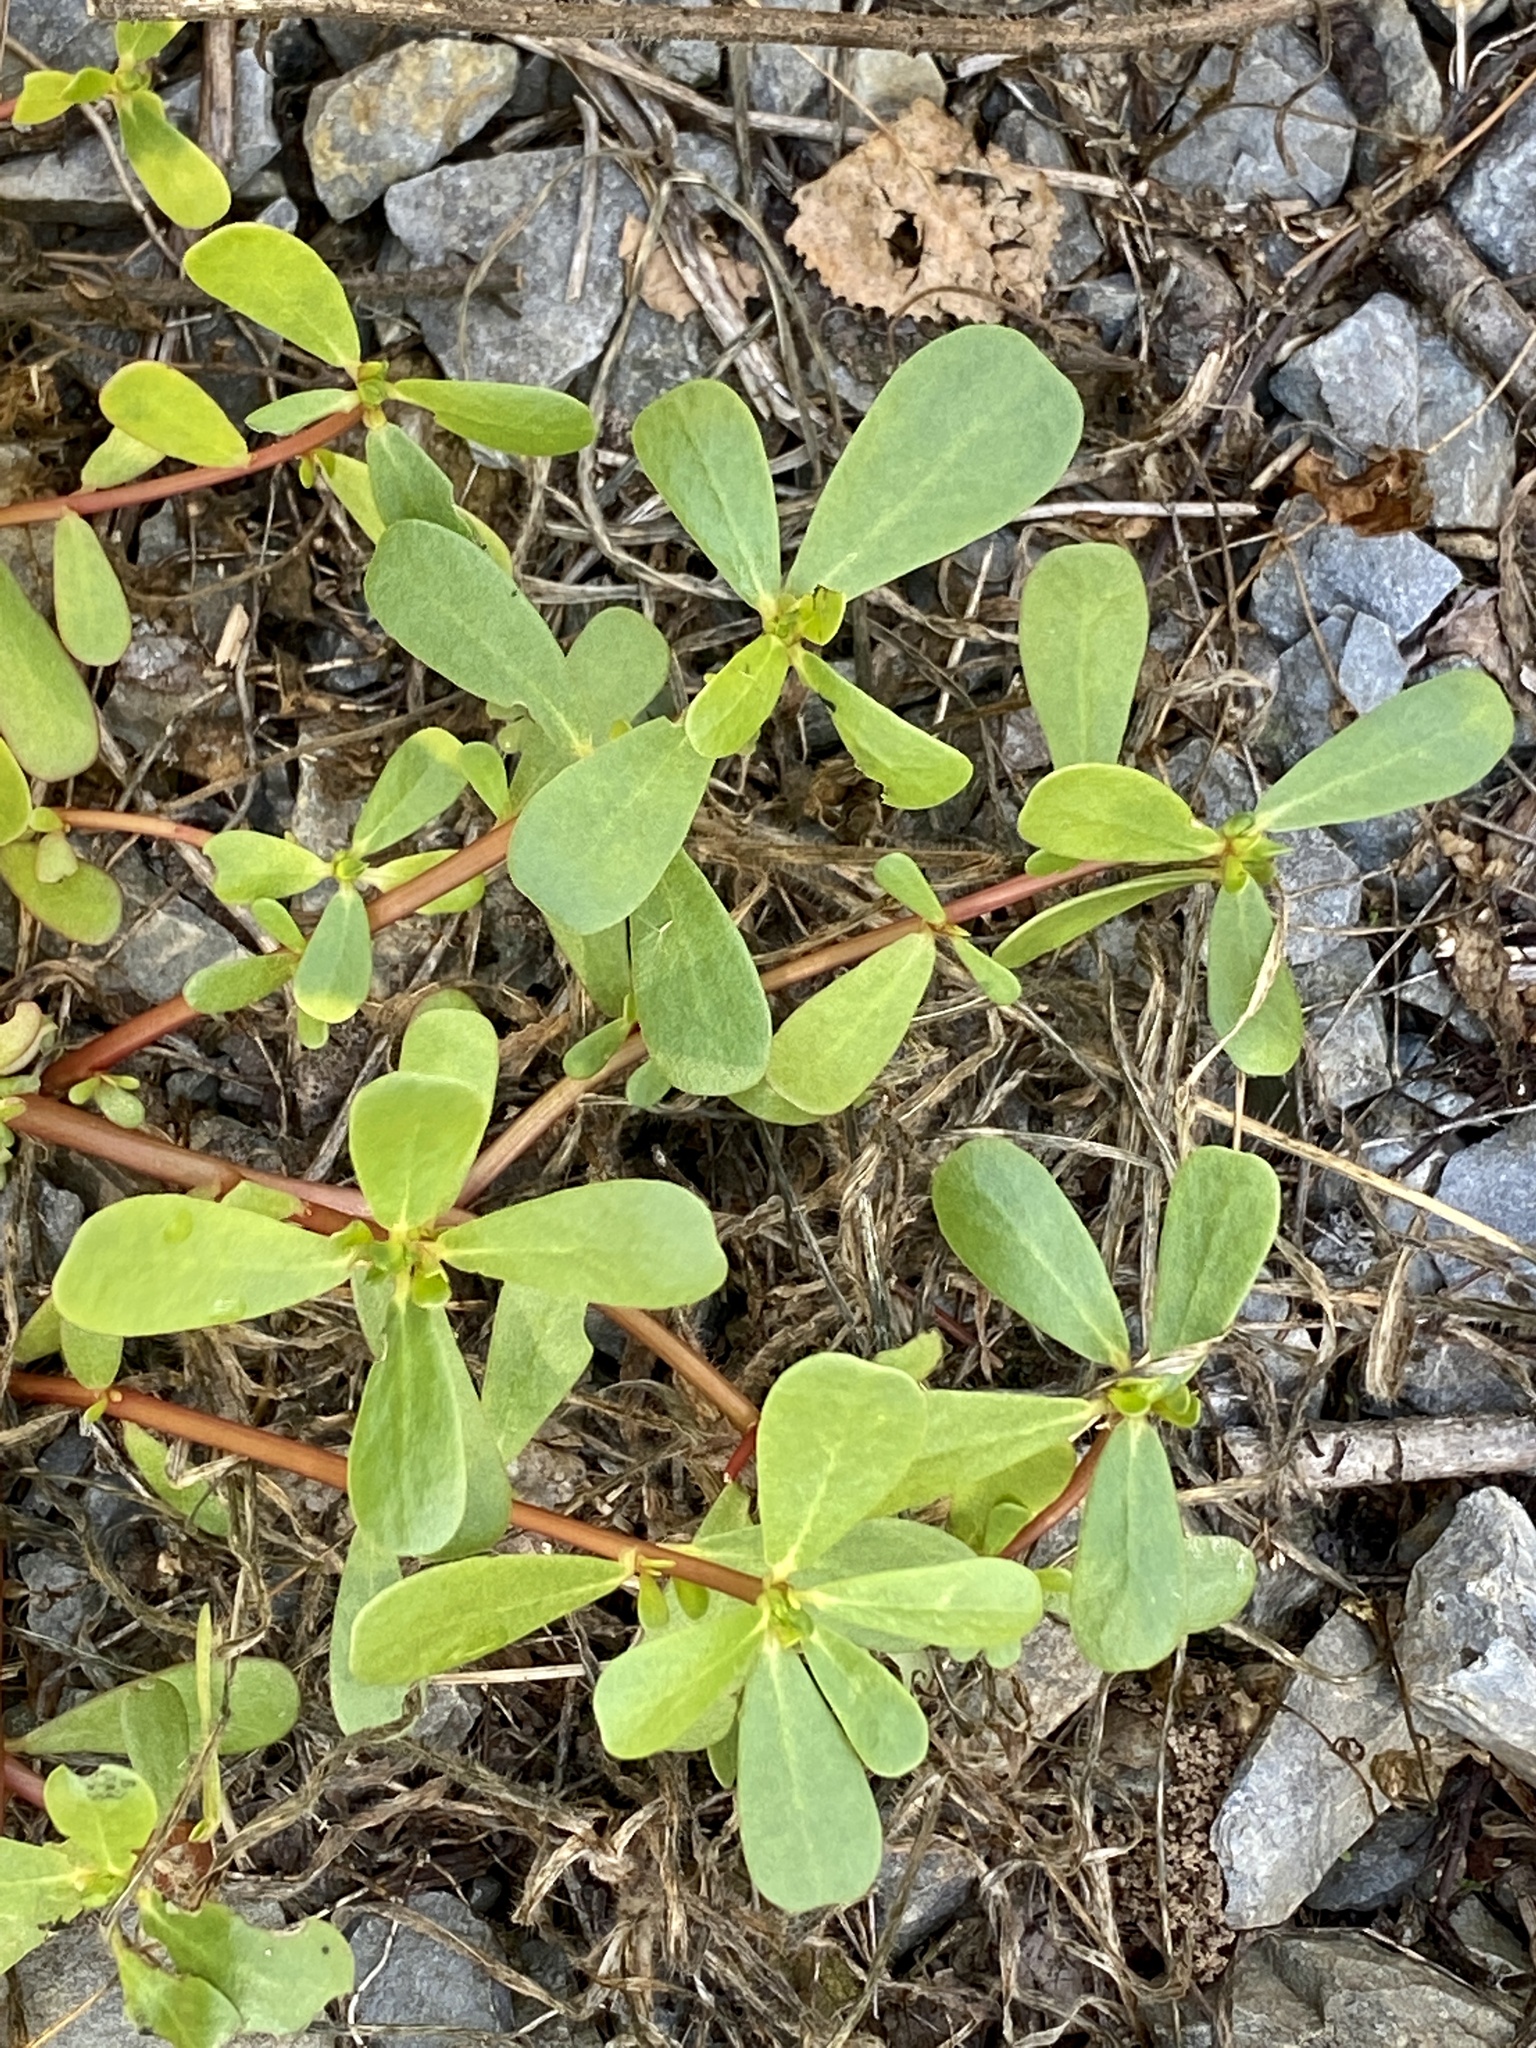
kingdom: Plantae
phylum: Tracheophyta
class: Magnoliopsida
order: Caryophyllales
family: Portulacaceae
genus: Portulaca
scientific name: Portulaca oleracea
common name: Common purslane
